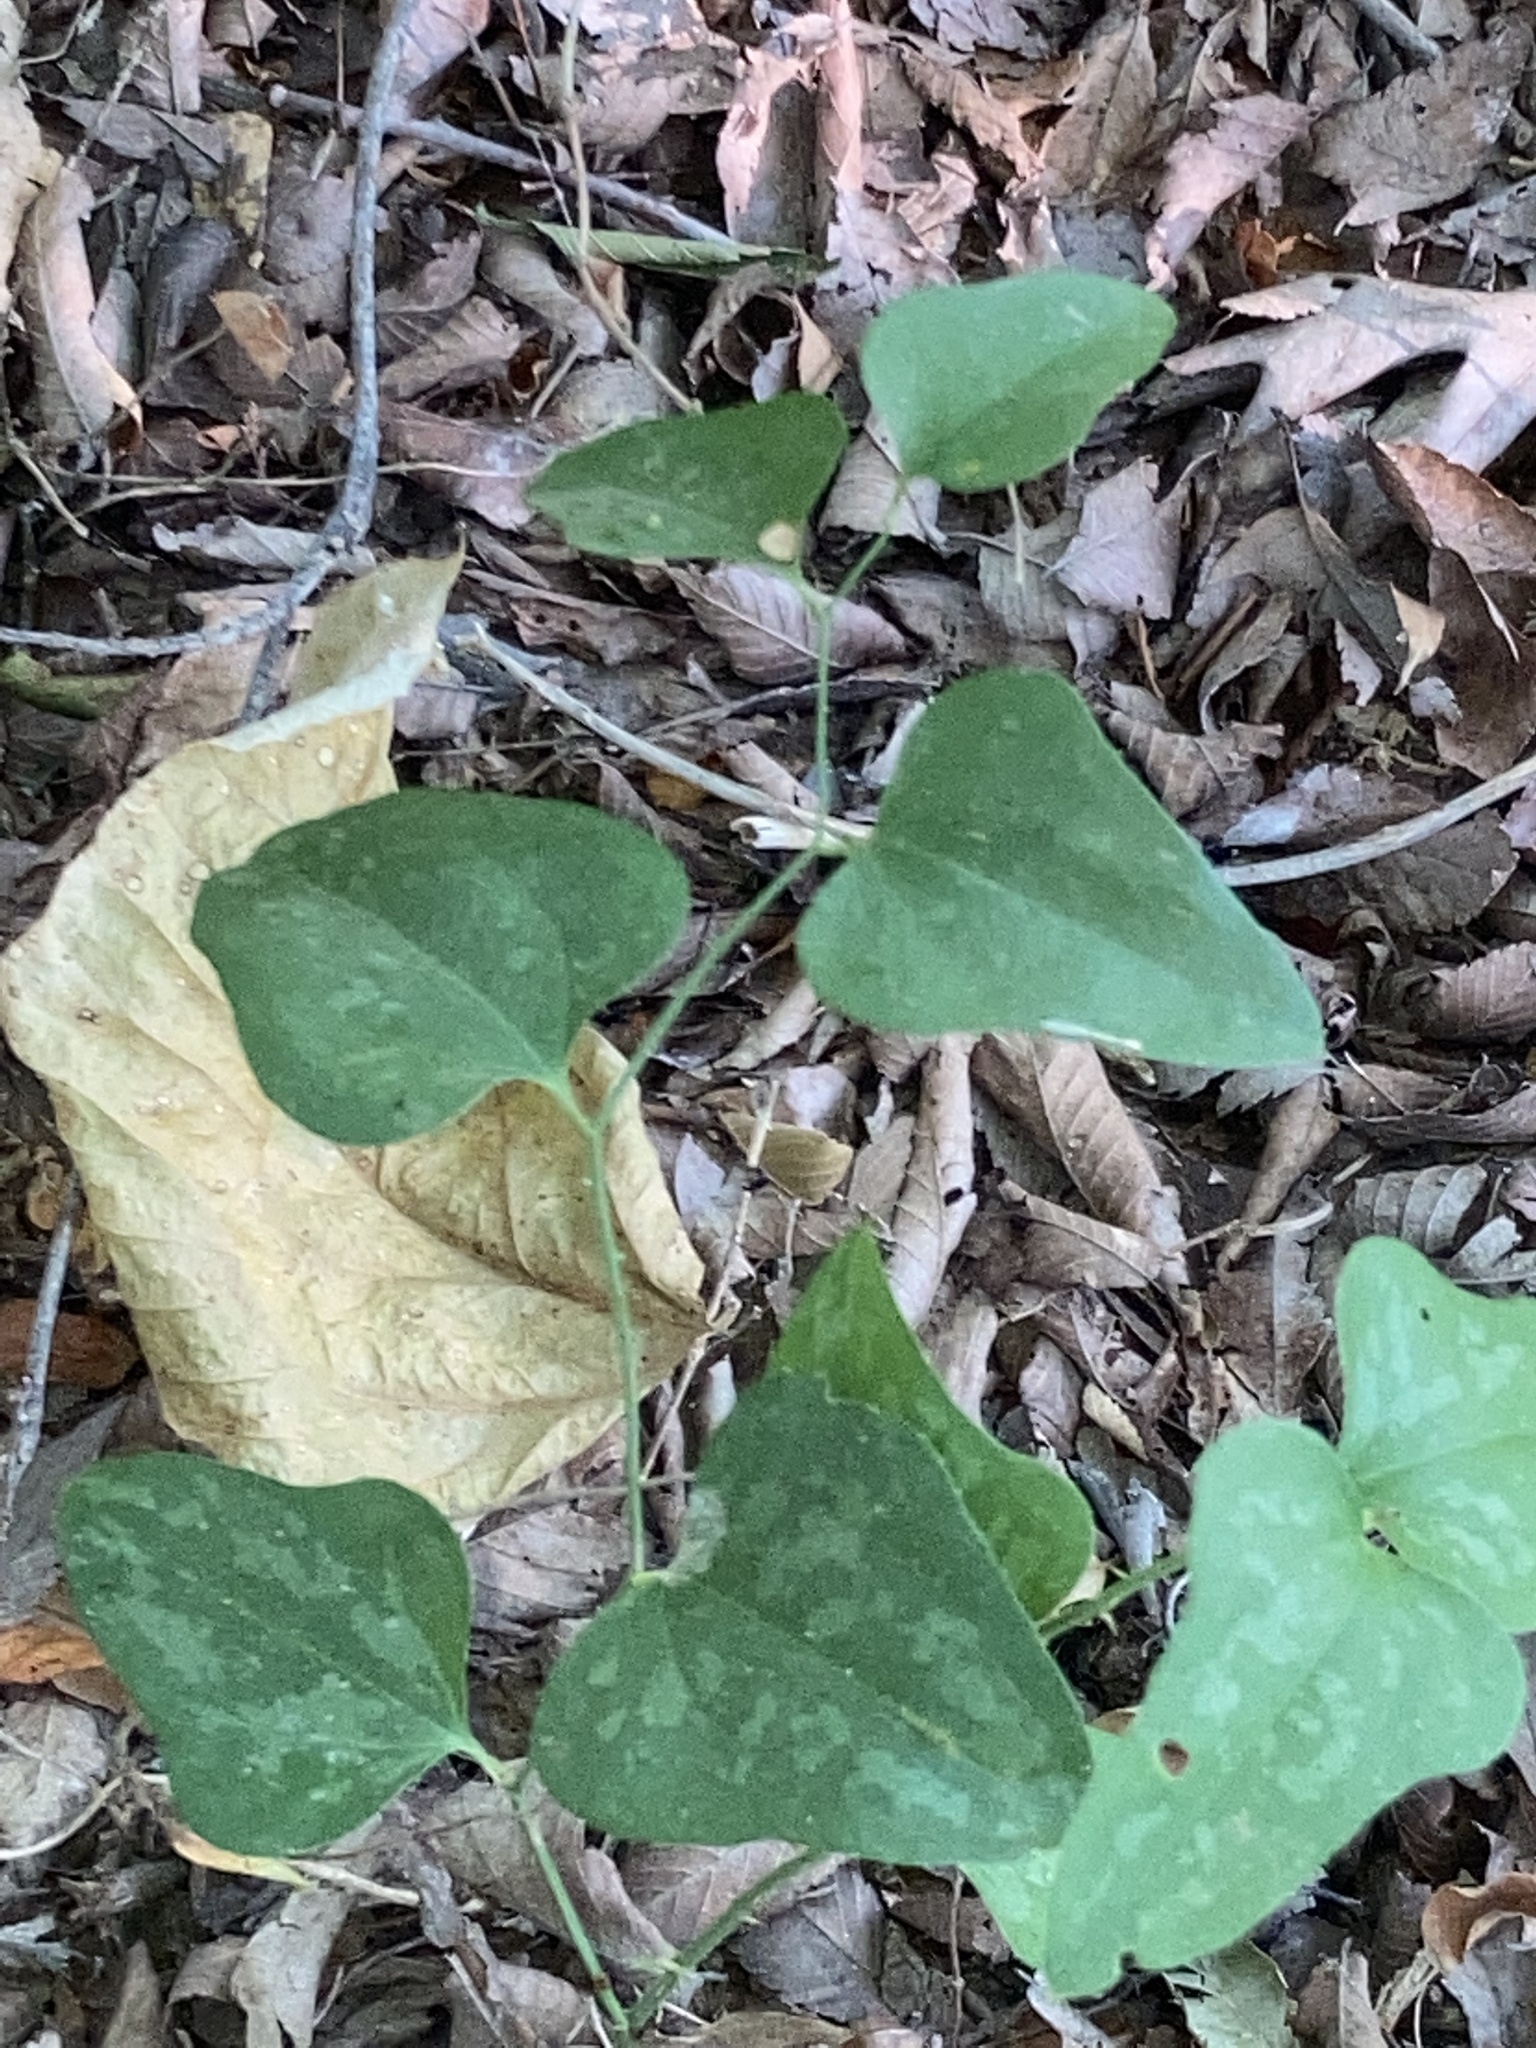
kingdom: Plantae
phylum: Tracheophyta
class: Liliopsida
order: Liliales
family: Smilacaceae
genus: Smilax
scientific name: Smilax bona-nox
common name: Catbrier
